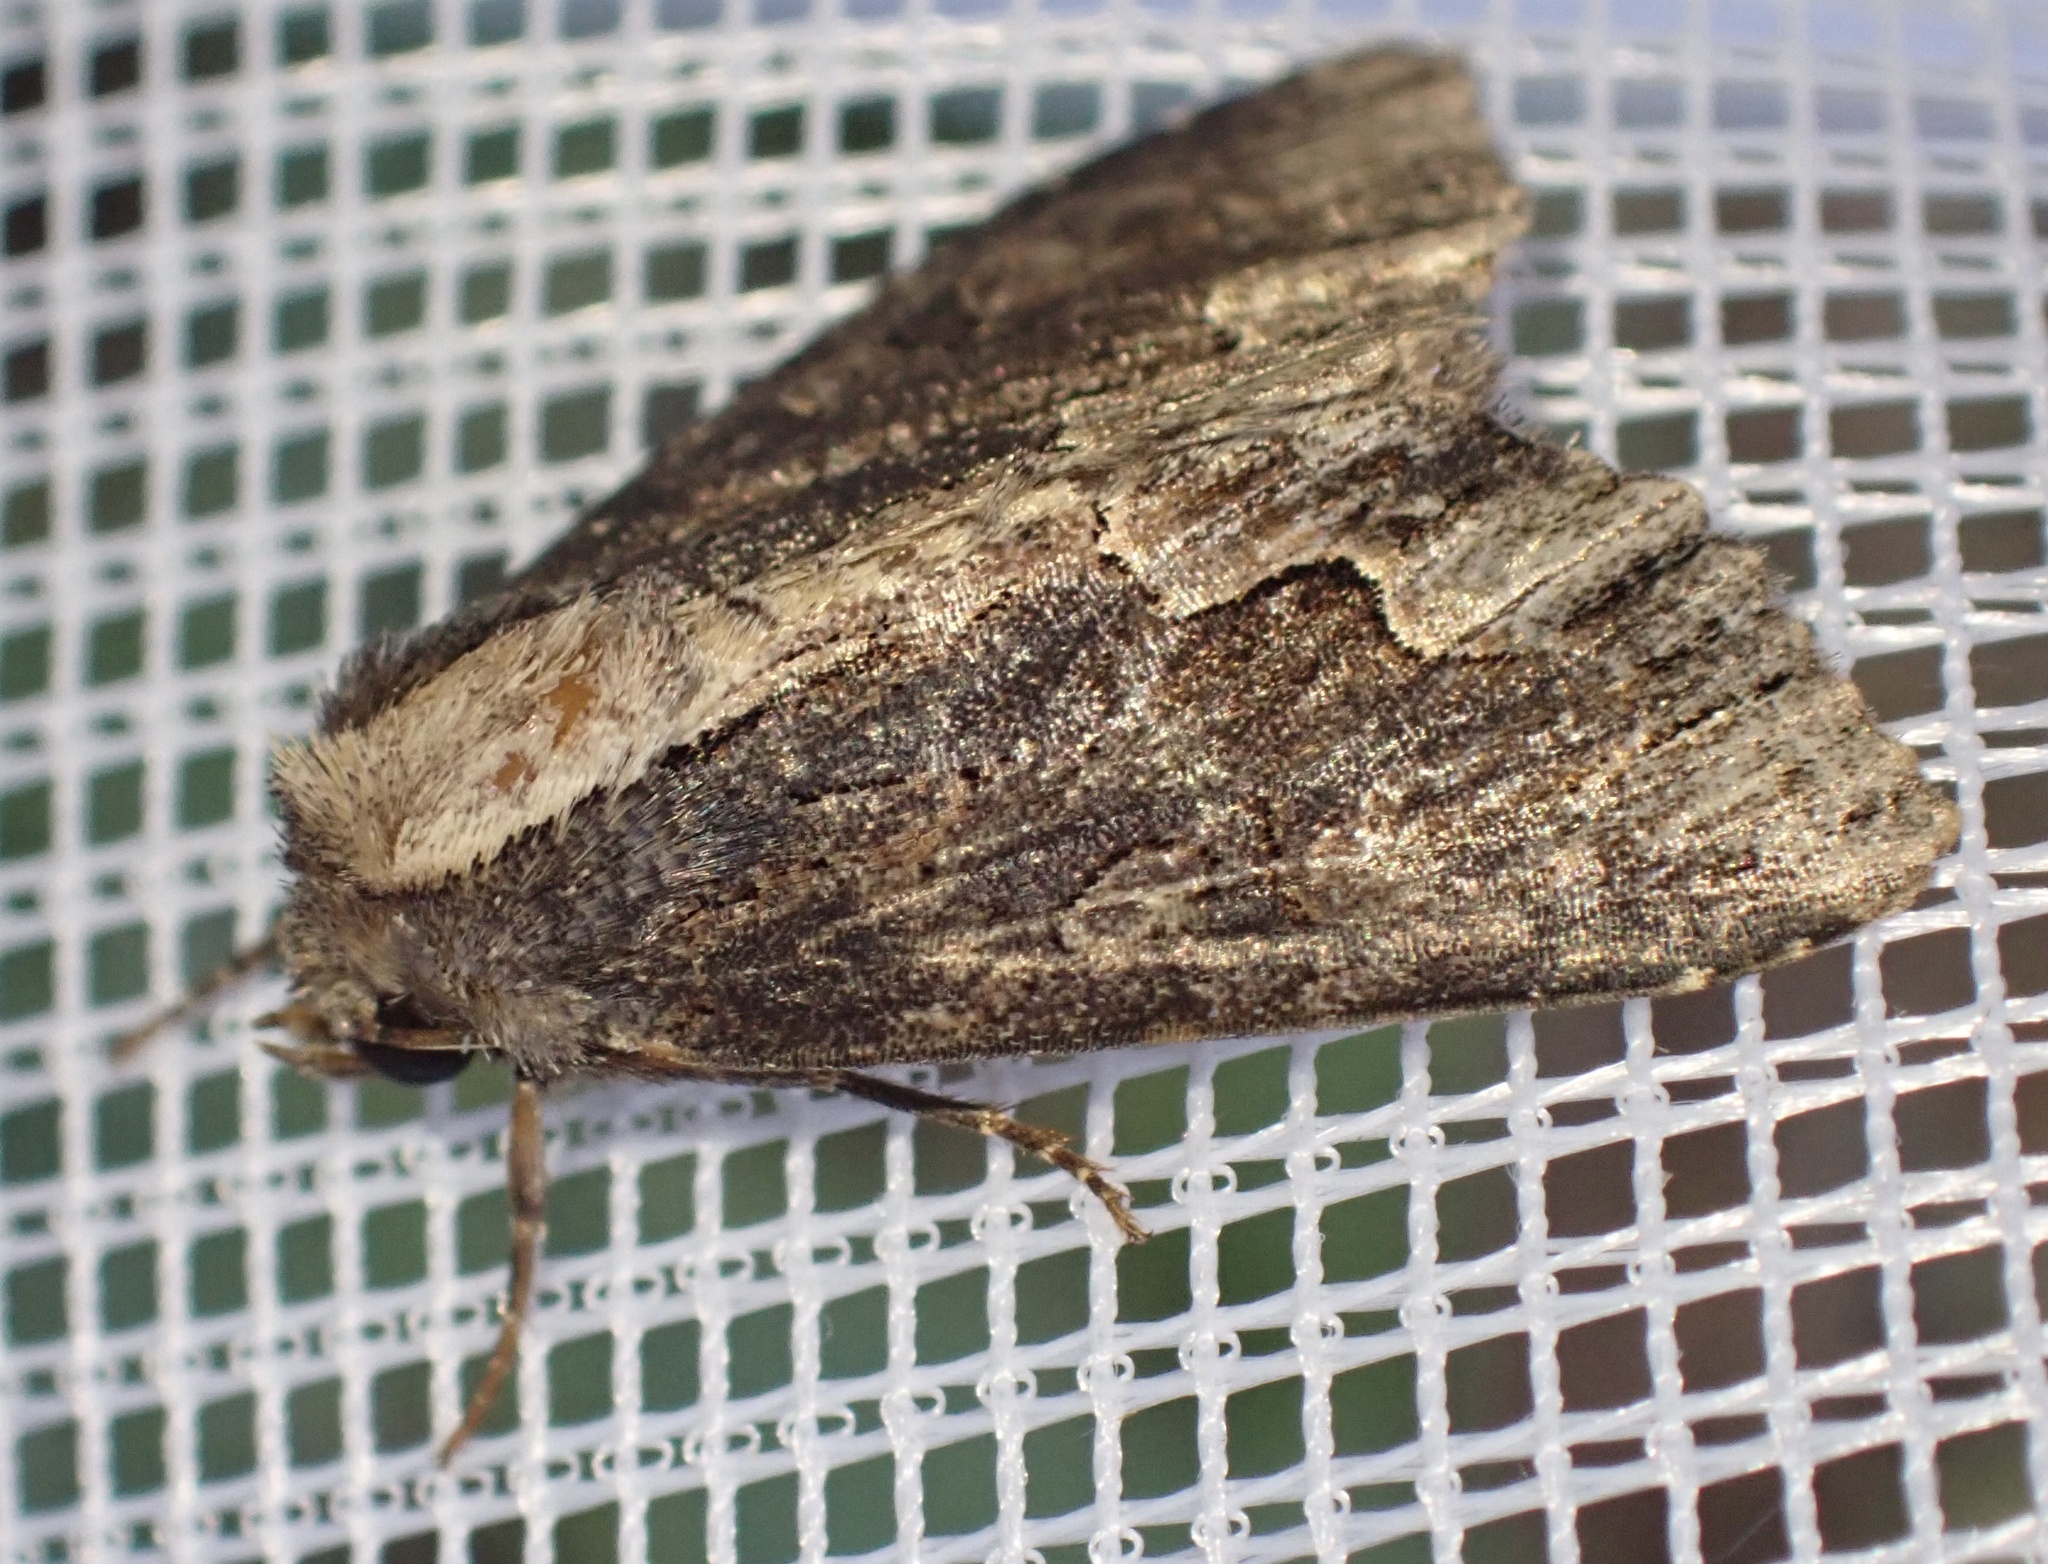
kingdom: Animalia
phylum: Arthropoda
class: Insecta
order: Lepidoptera
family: Noctuidae
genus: Dypterygia
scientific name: Dypterygia scabriuscula
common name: Bird's wing
